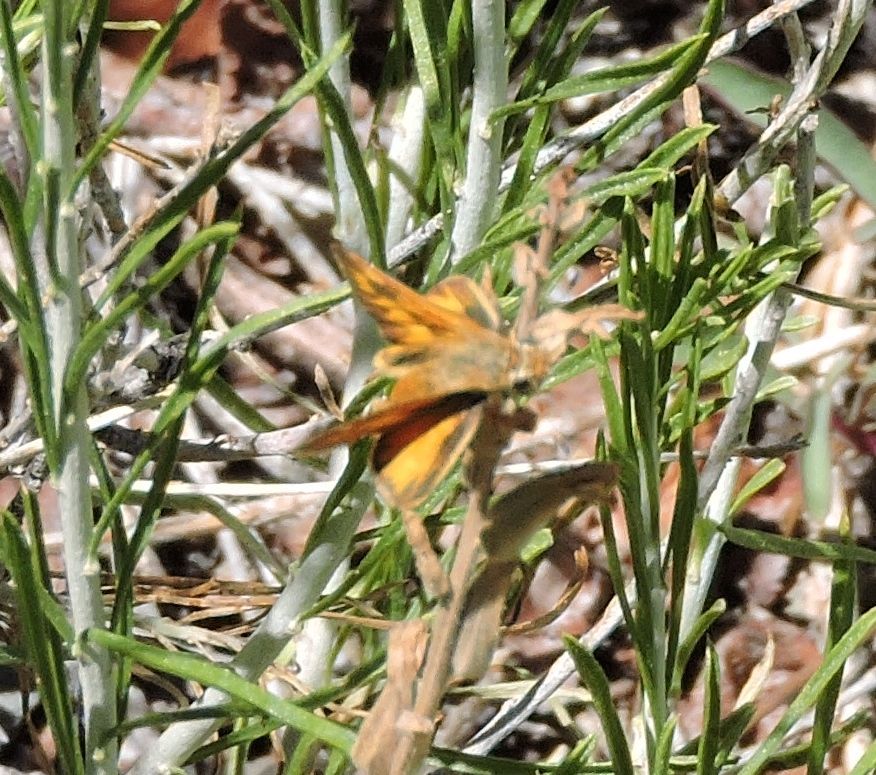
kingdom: Animalia
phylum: Arthropoda
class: Insecta
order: Lepidoptera
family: Hesperiidae
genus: Ochlodes
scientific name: Ochlodes sylvanoides
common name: Woodland skipper
